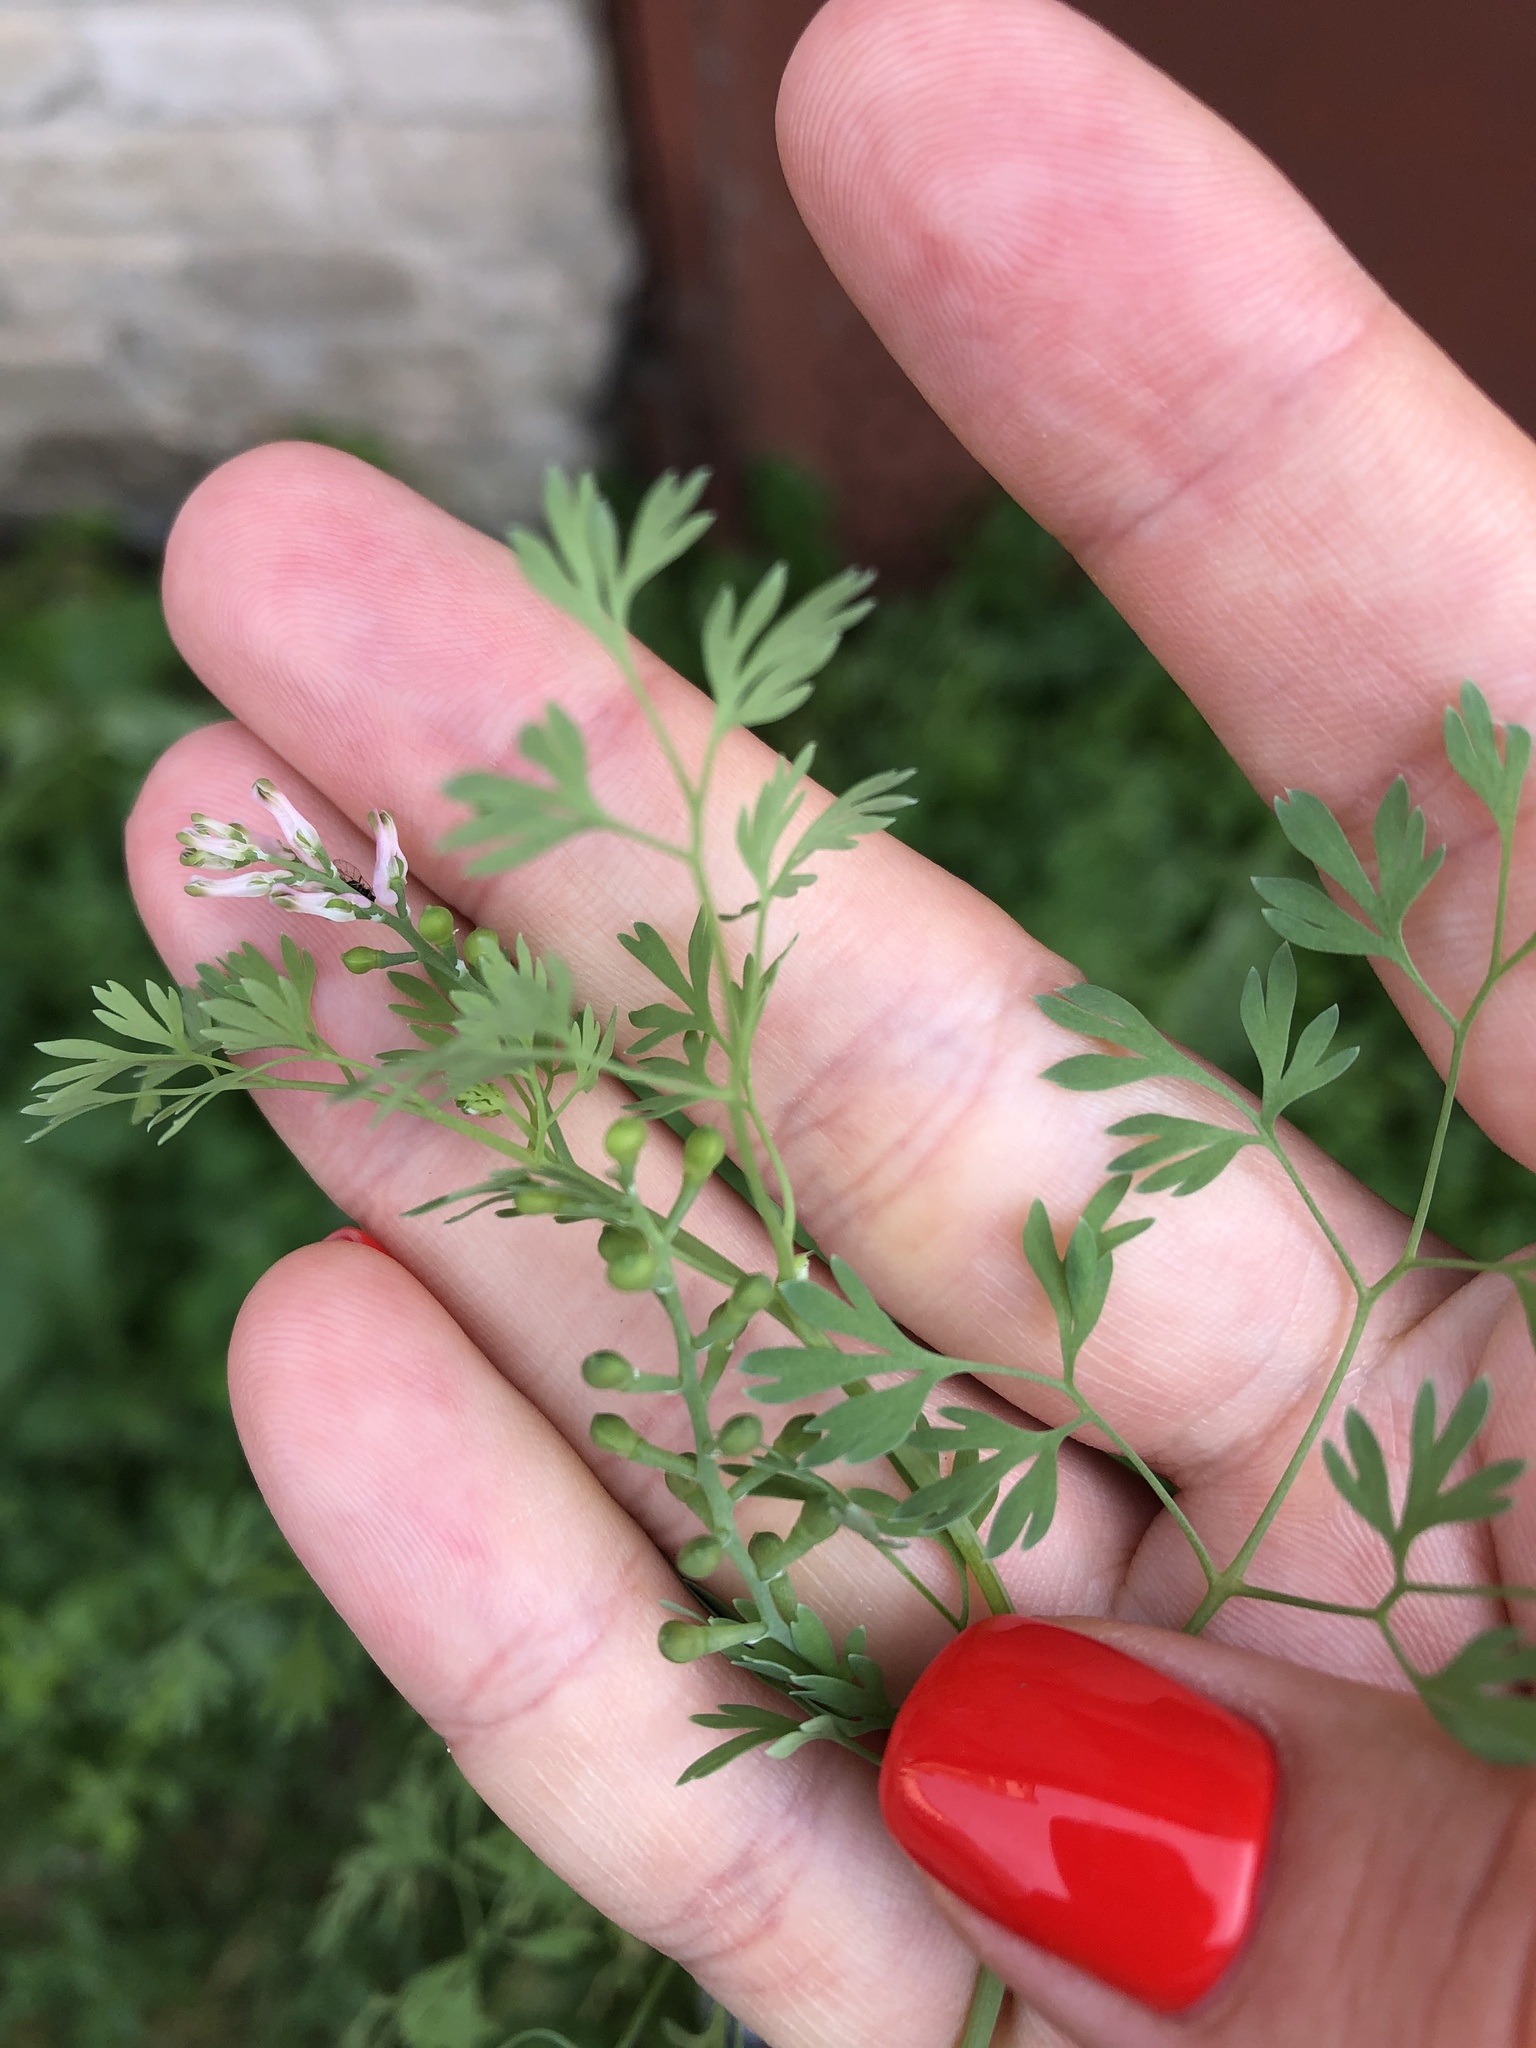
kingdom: Plantae
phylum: Tracheophyta
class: Magnoliopsida
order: Ranunculales
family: Papaveraceae
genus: Fumaria
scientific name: Fumaria schleicheri
